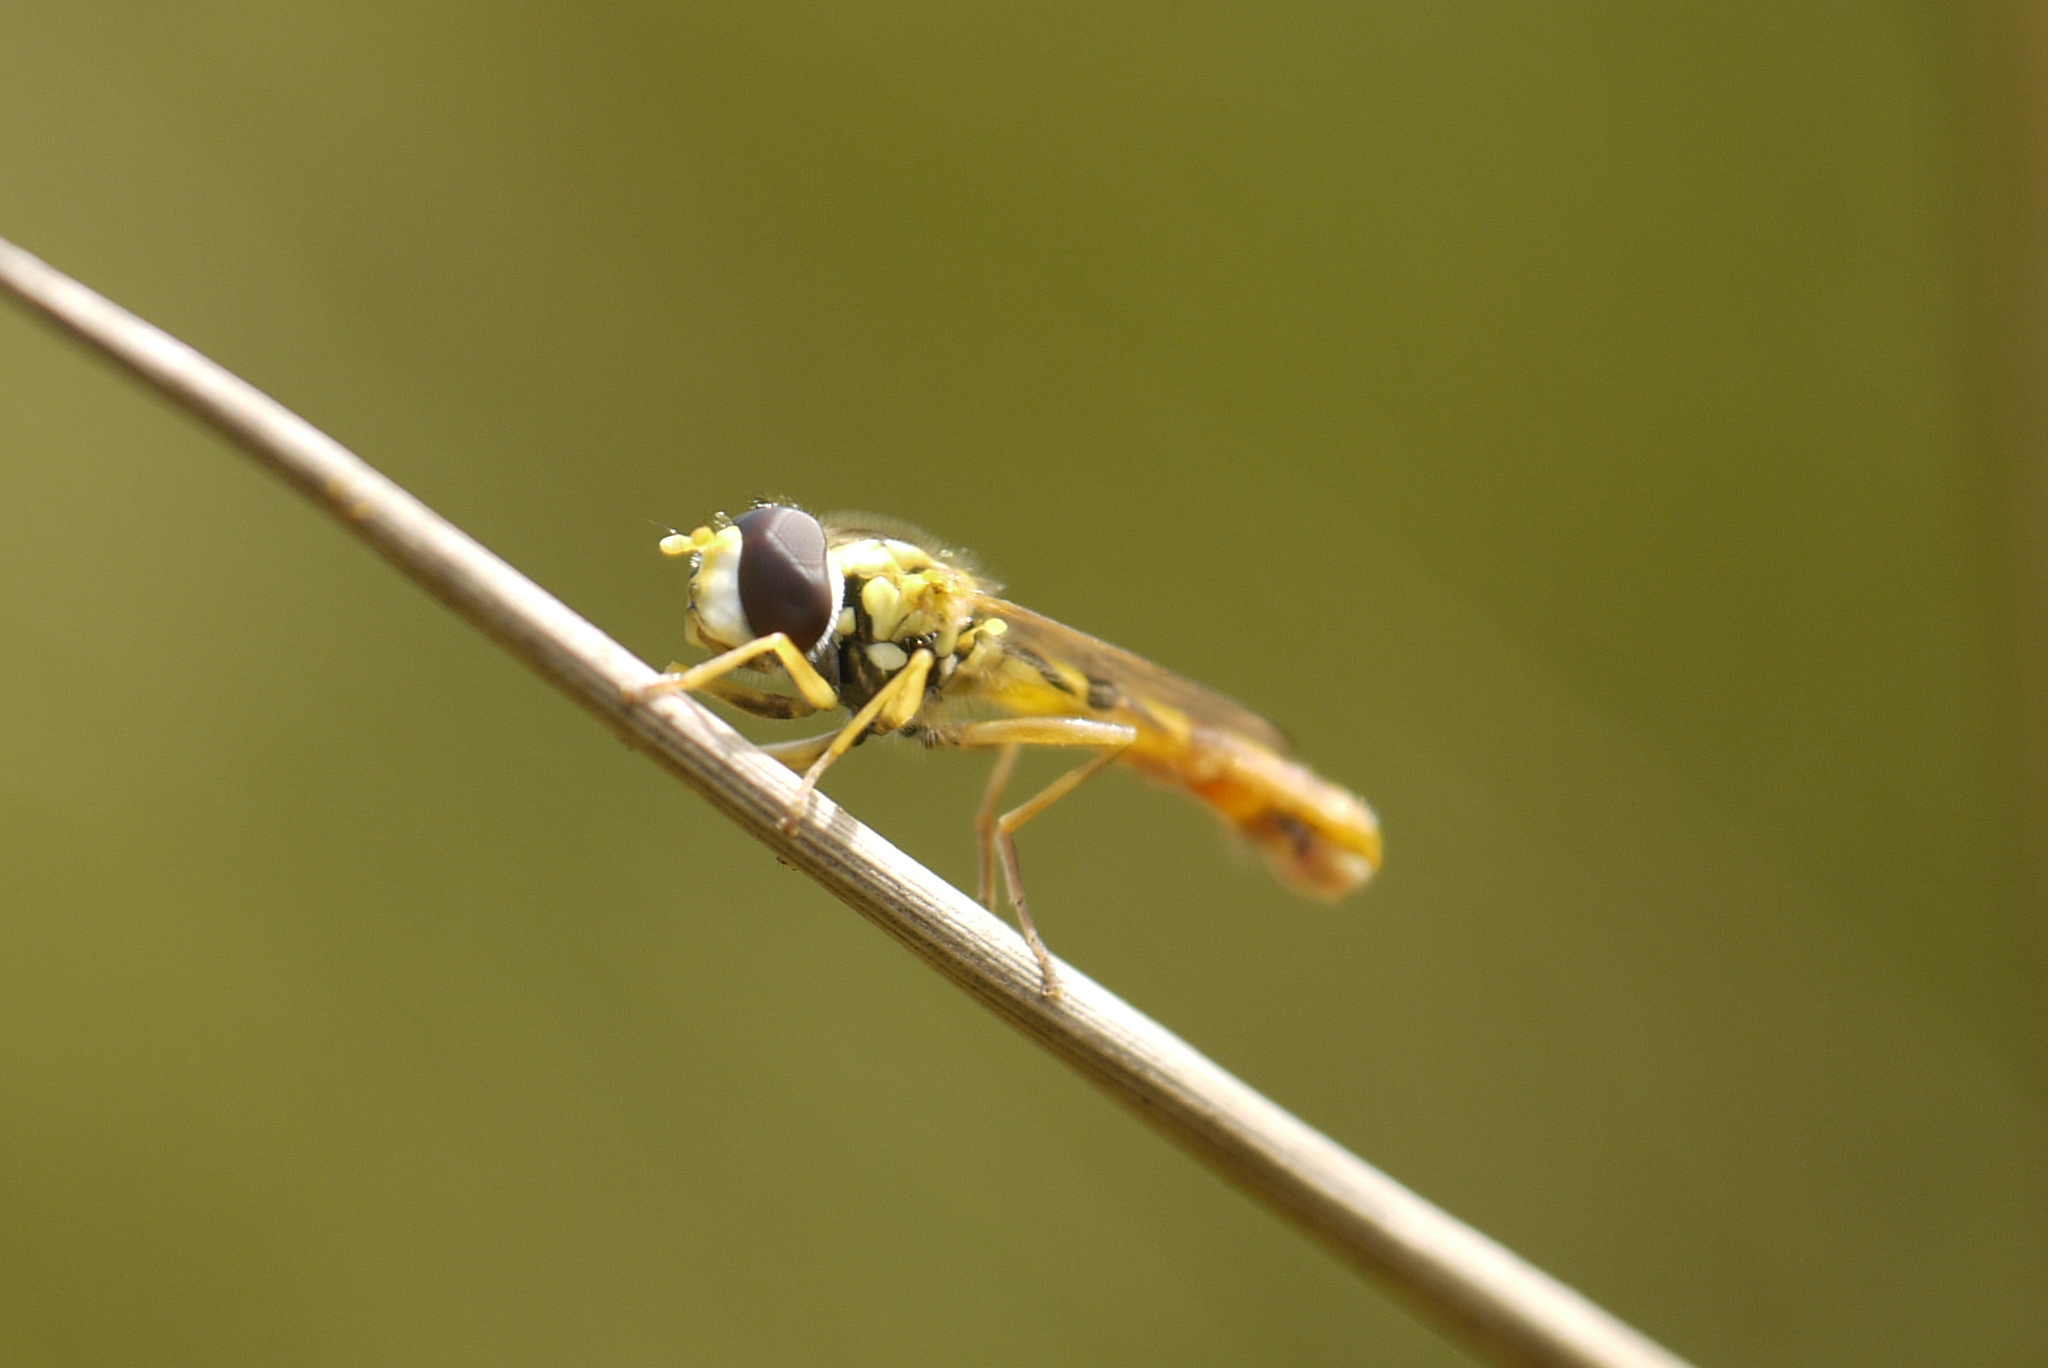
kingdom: Animalia
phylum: Arthropoda
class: Insecta
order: Diptera
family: Syrphidae
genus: Sphaerophoria
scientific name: Sphaerophoria scripta
